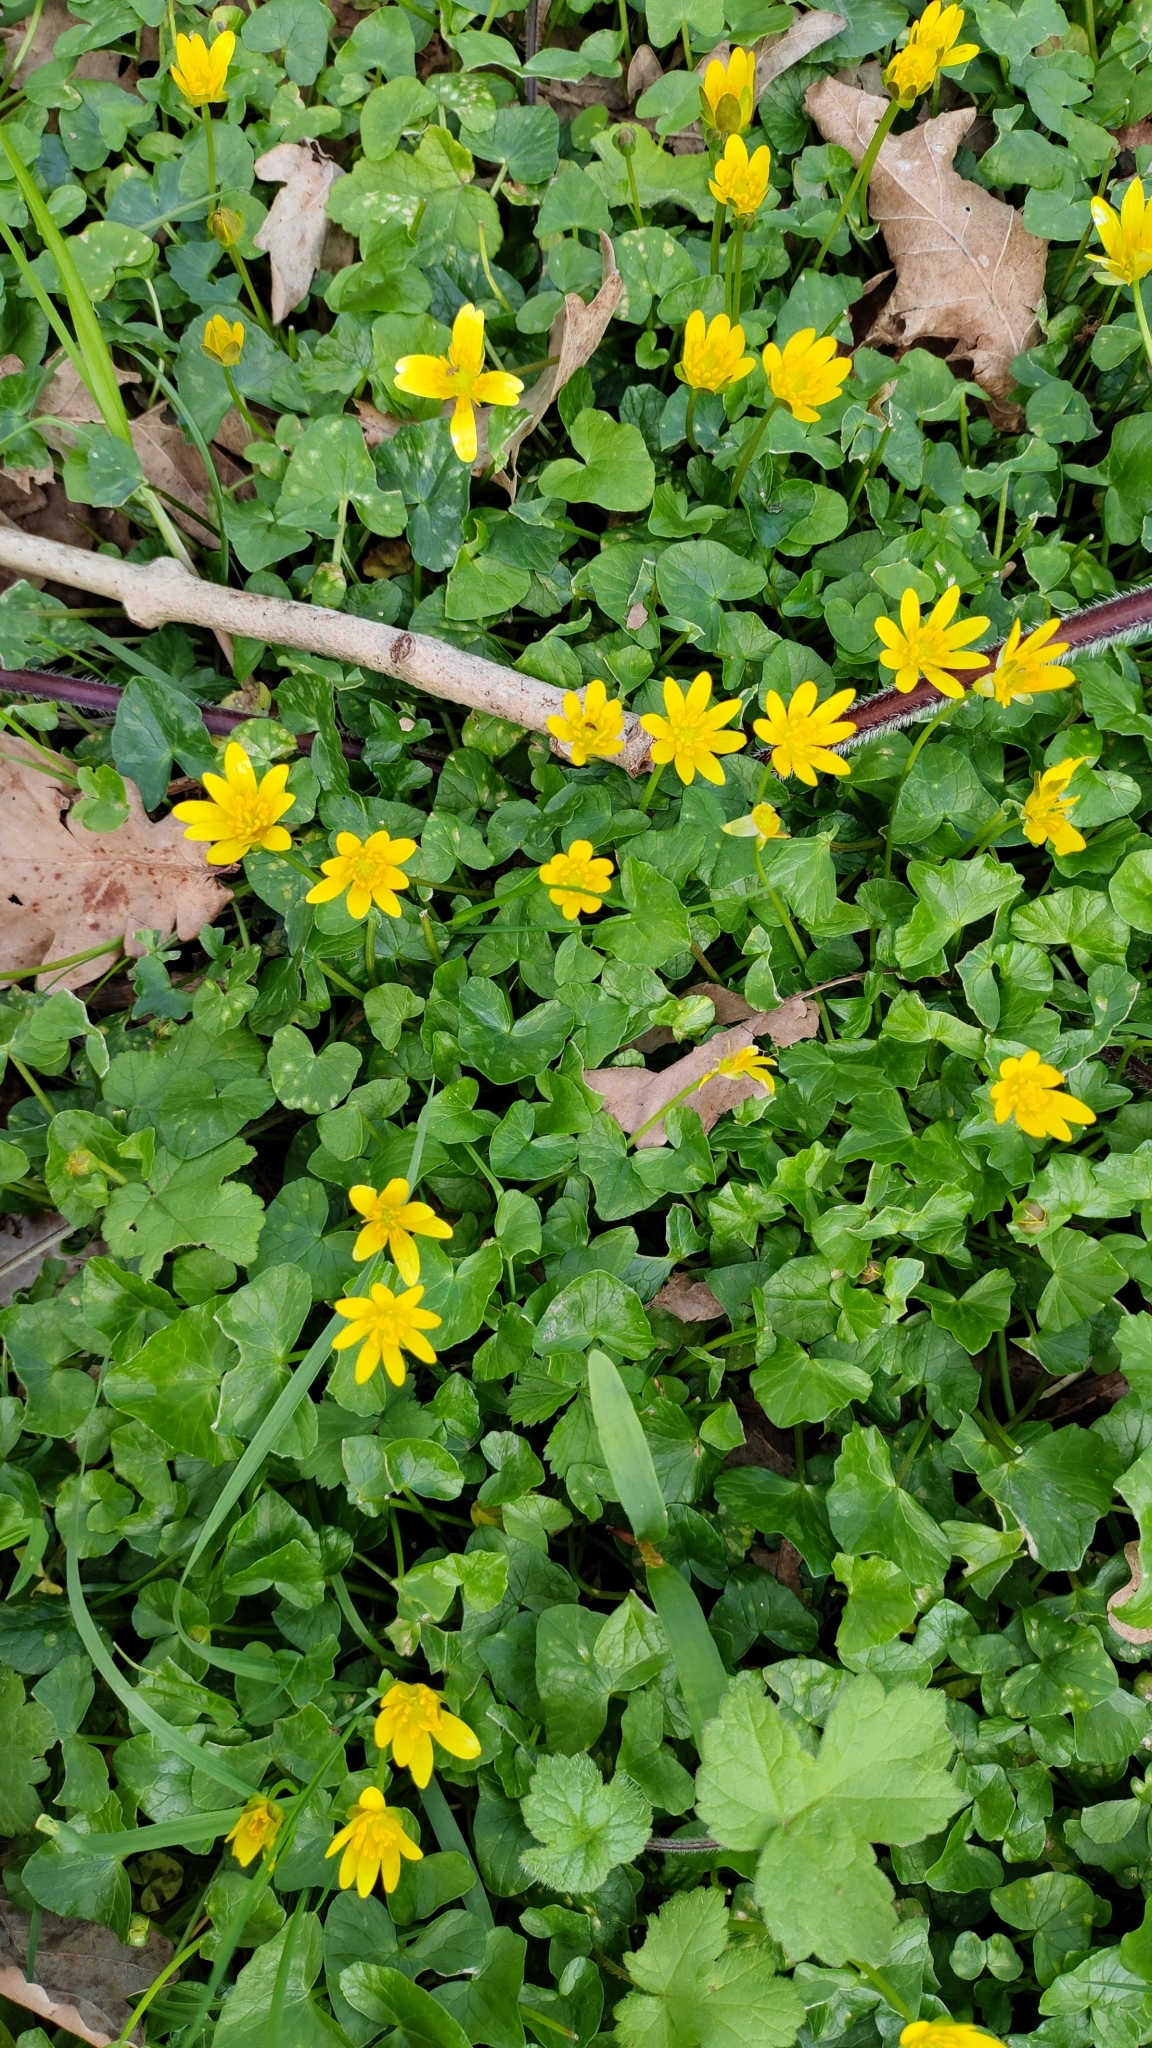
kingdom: Plantae
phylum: Tracheophyta
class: Magnoliopsida
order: Ranunculales
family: Ranunculaceae
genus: Ficaria
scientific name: Ficaria verna
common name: Lesser celandine
